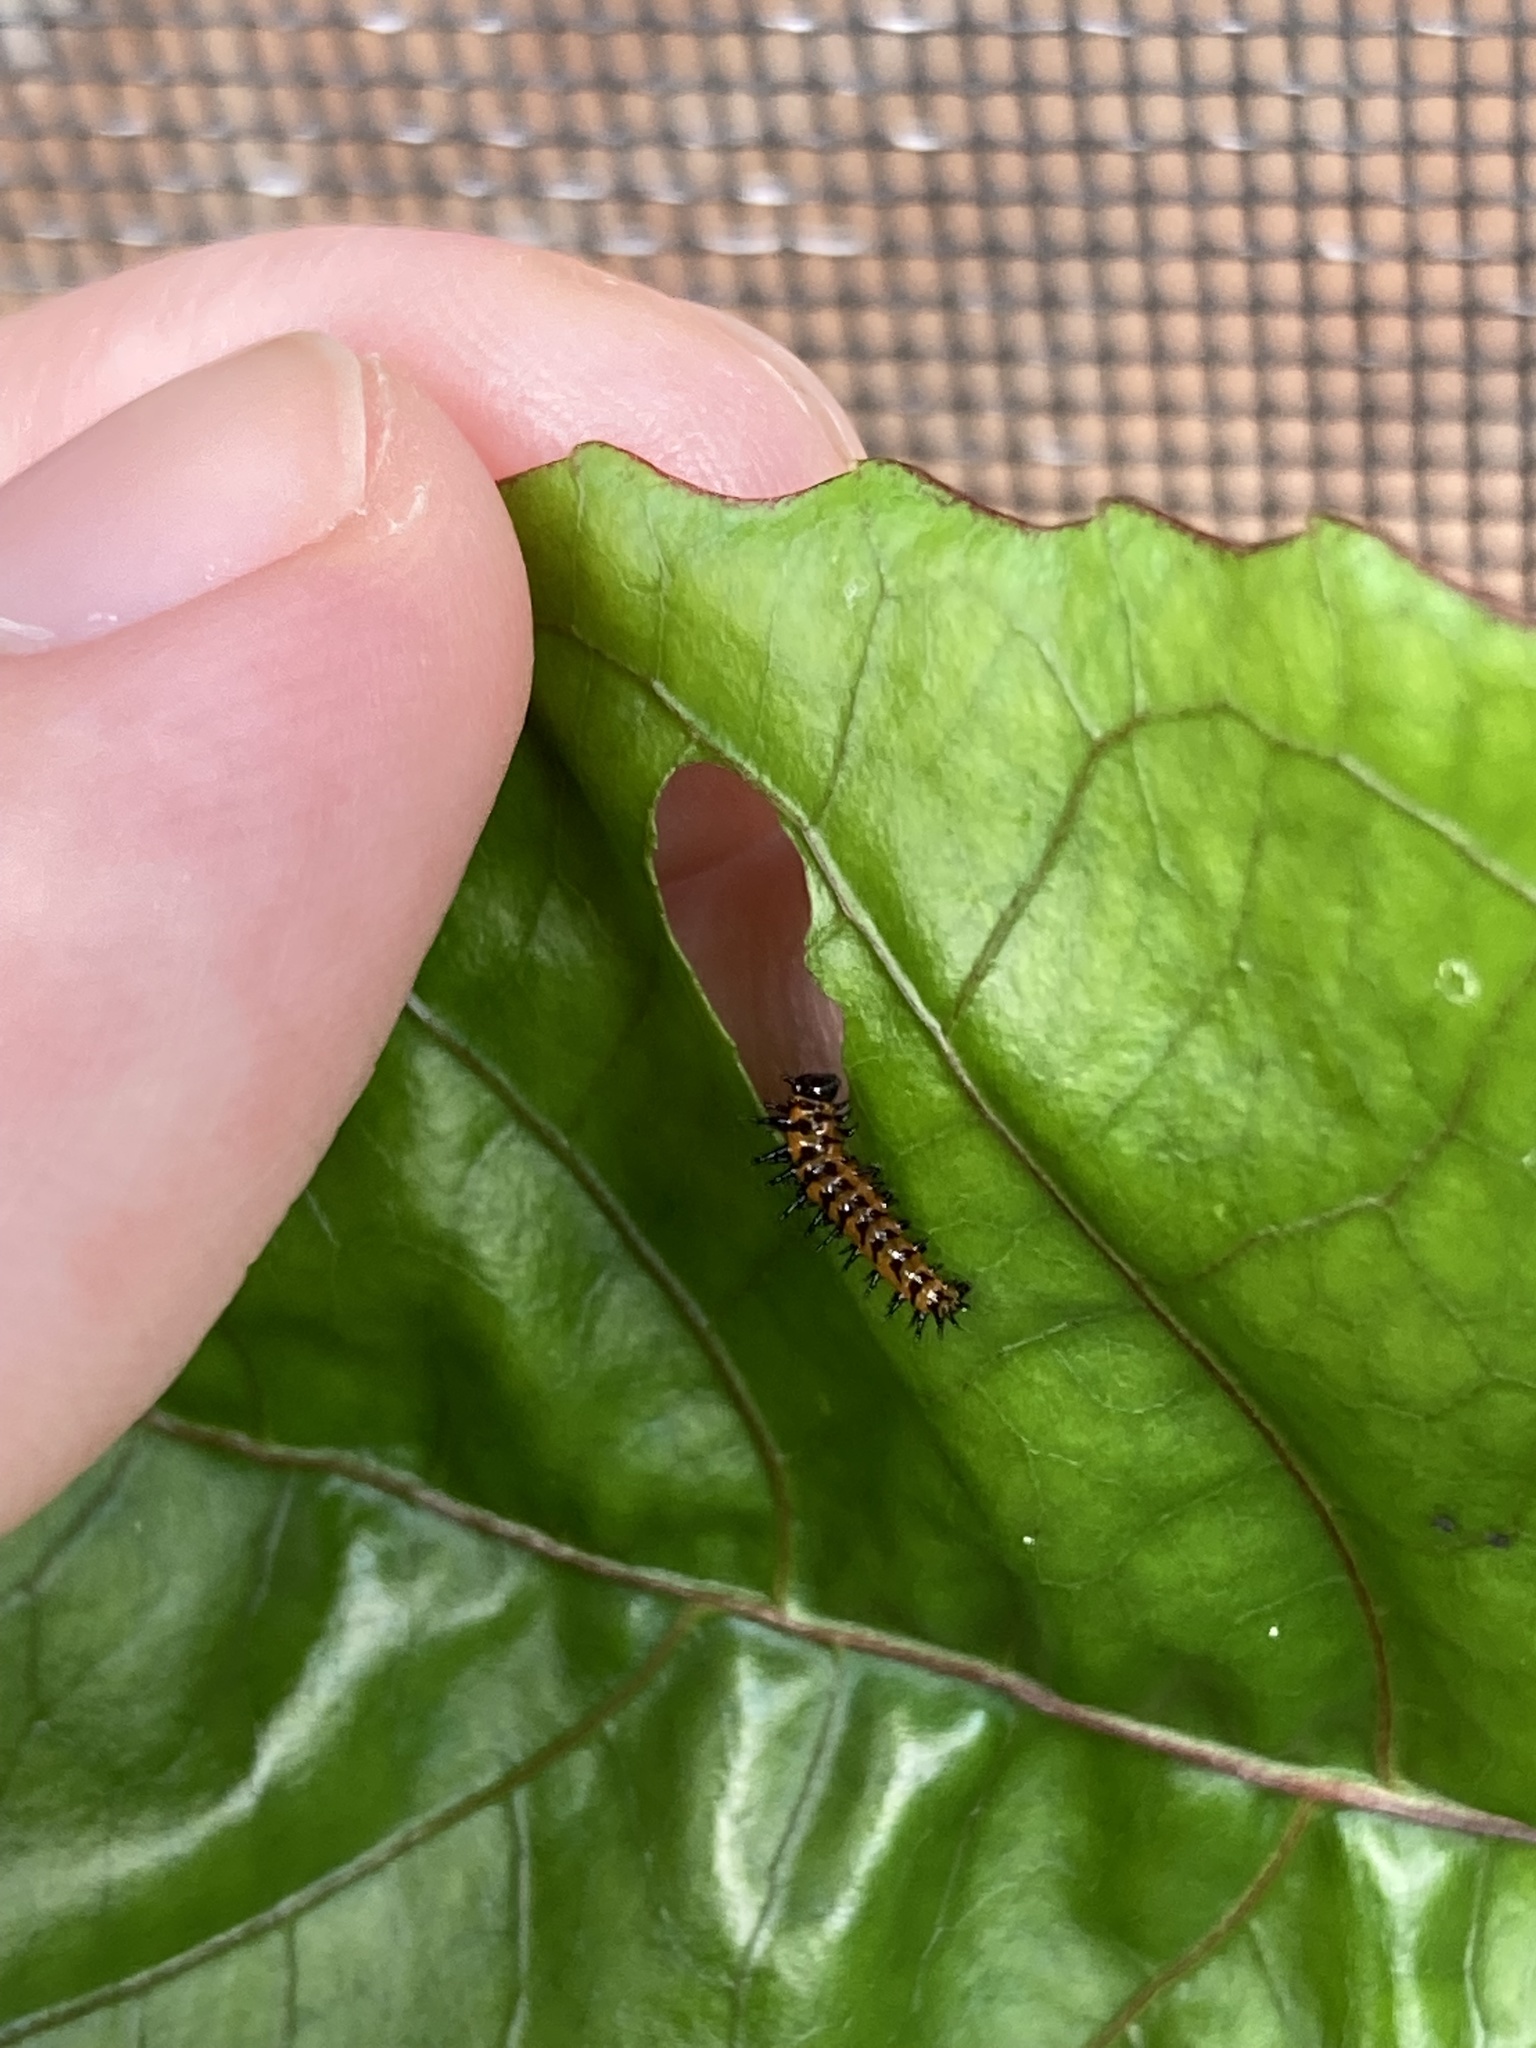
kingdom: Animalia
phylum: Arthropoda
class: Insecta
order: Lepidoptera
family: Nymphalidae
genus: Dione
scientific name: Dione vanillae
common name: Gulf fritillary
